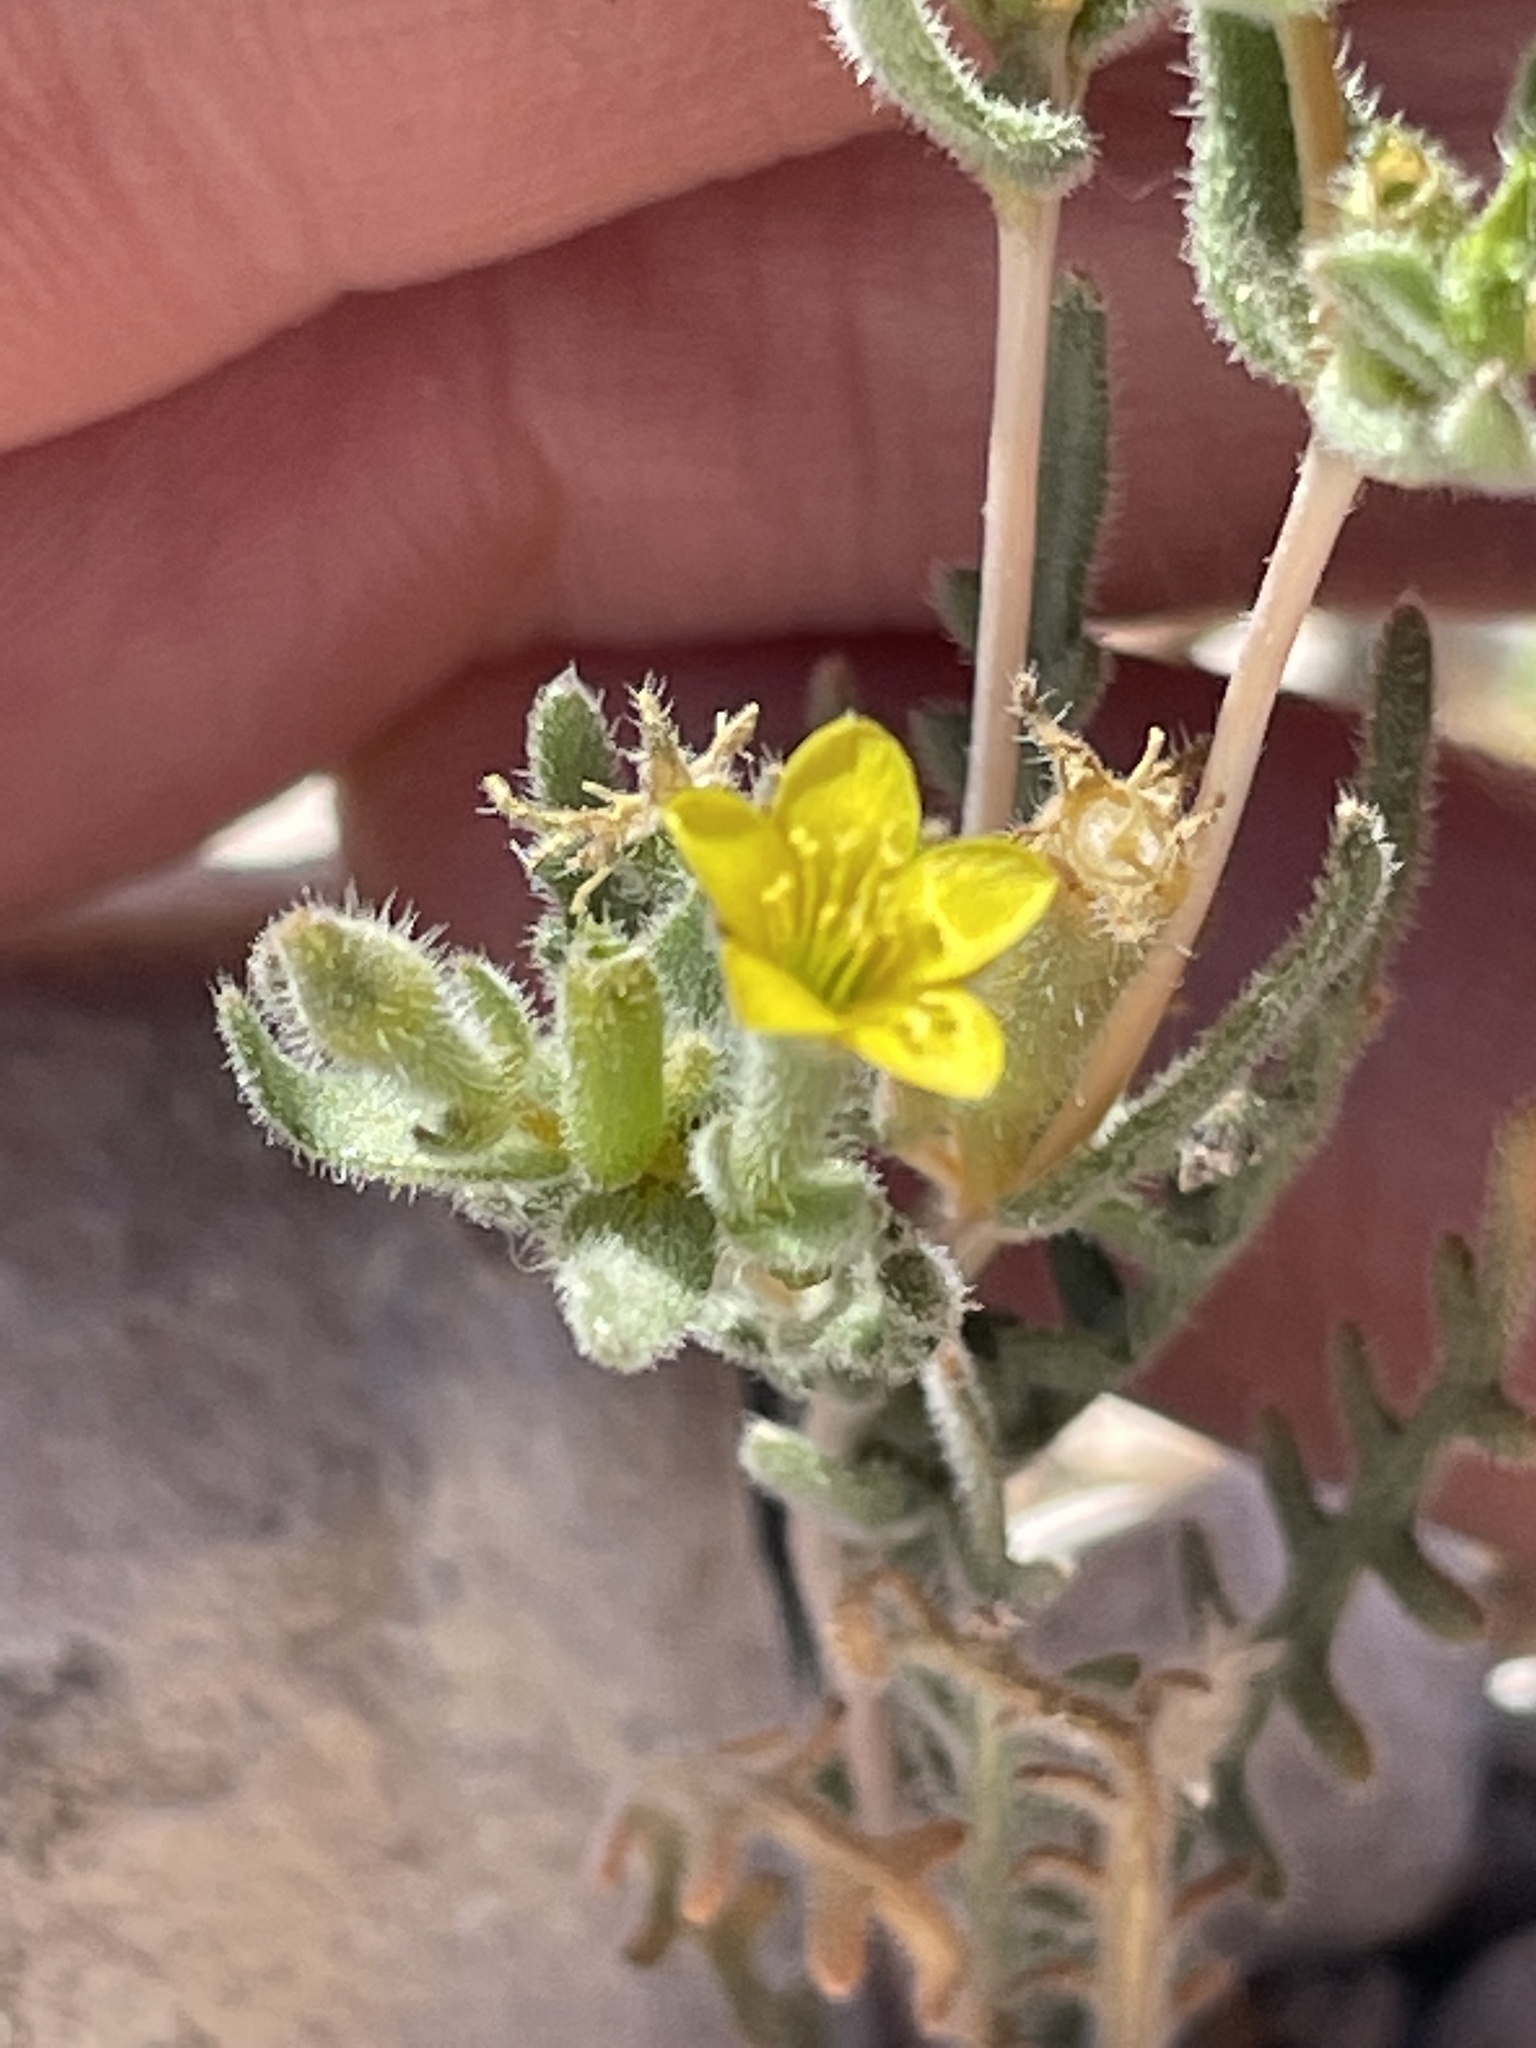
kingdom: Plantae
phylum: Tracheophyta
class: Magnoliopsida
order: Cornales
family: Loasaceae
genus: Mentzelia
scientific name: Mentzelia albicaulis
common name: White-stem blazingstar
